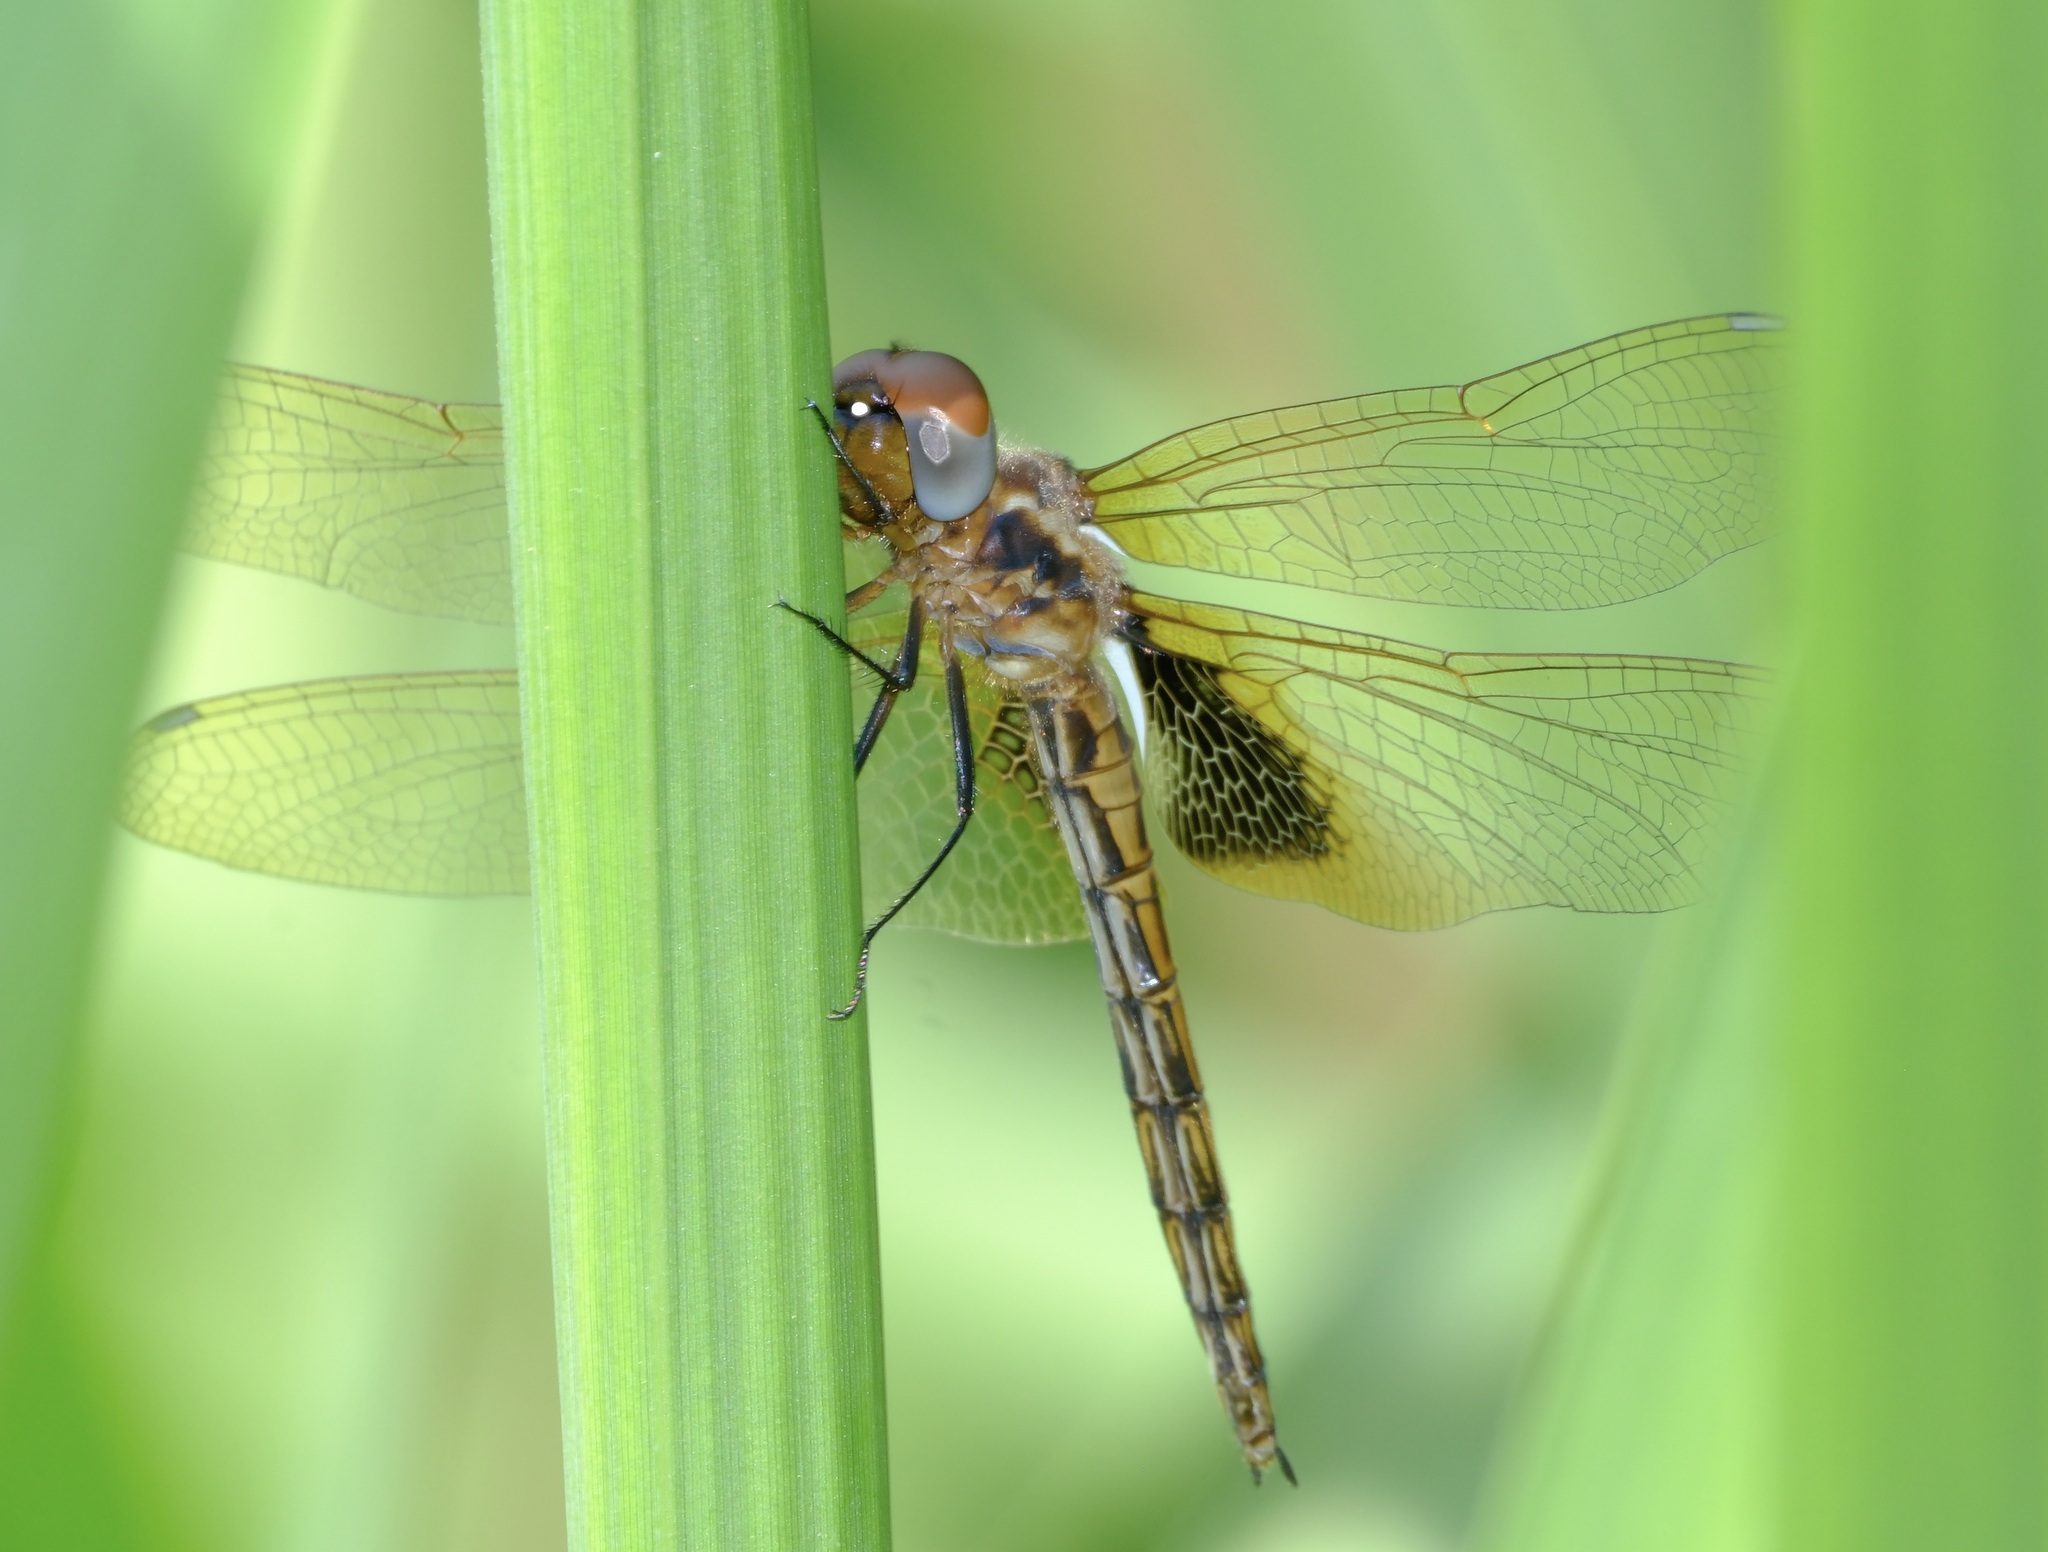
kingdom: Animalia
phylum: Arthropoda
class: Insecta
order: Odonata
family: Libellulidae
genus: Miathyria
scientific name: Miathyria marcella
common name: Hyacinth glider
